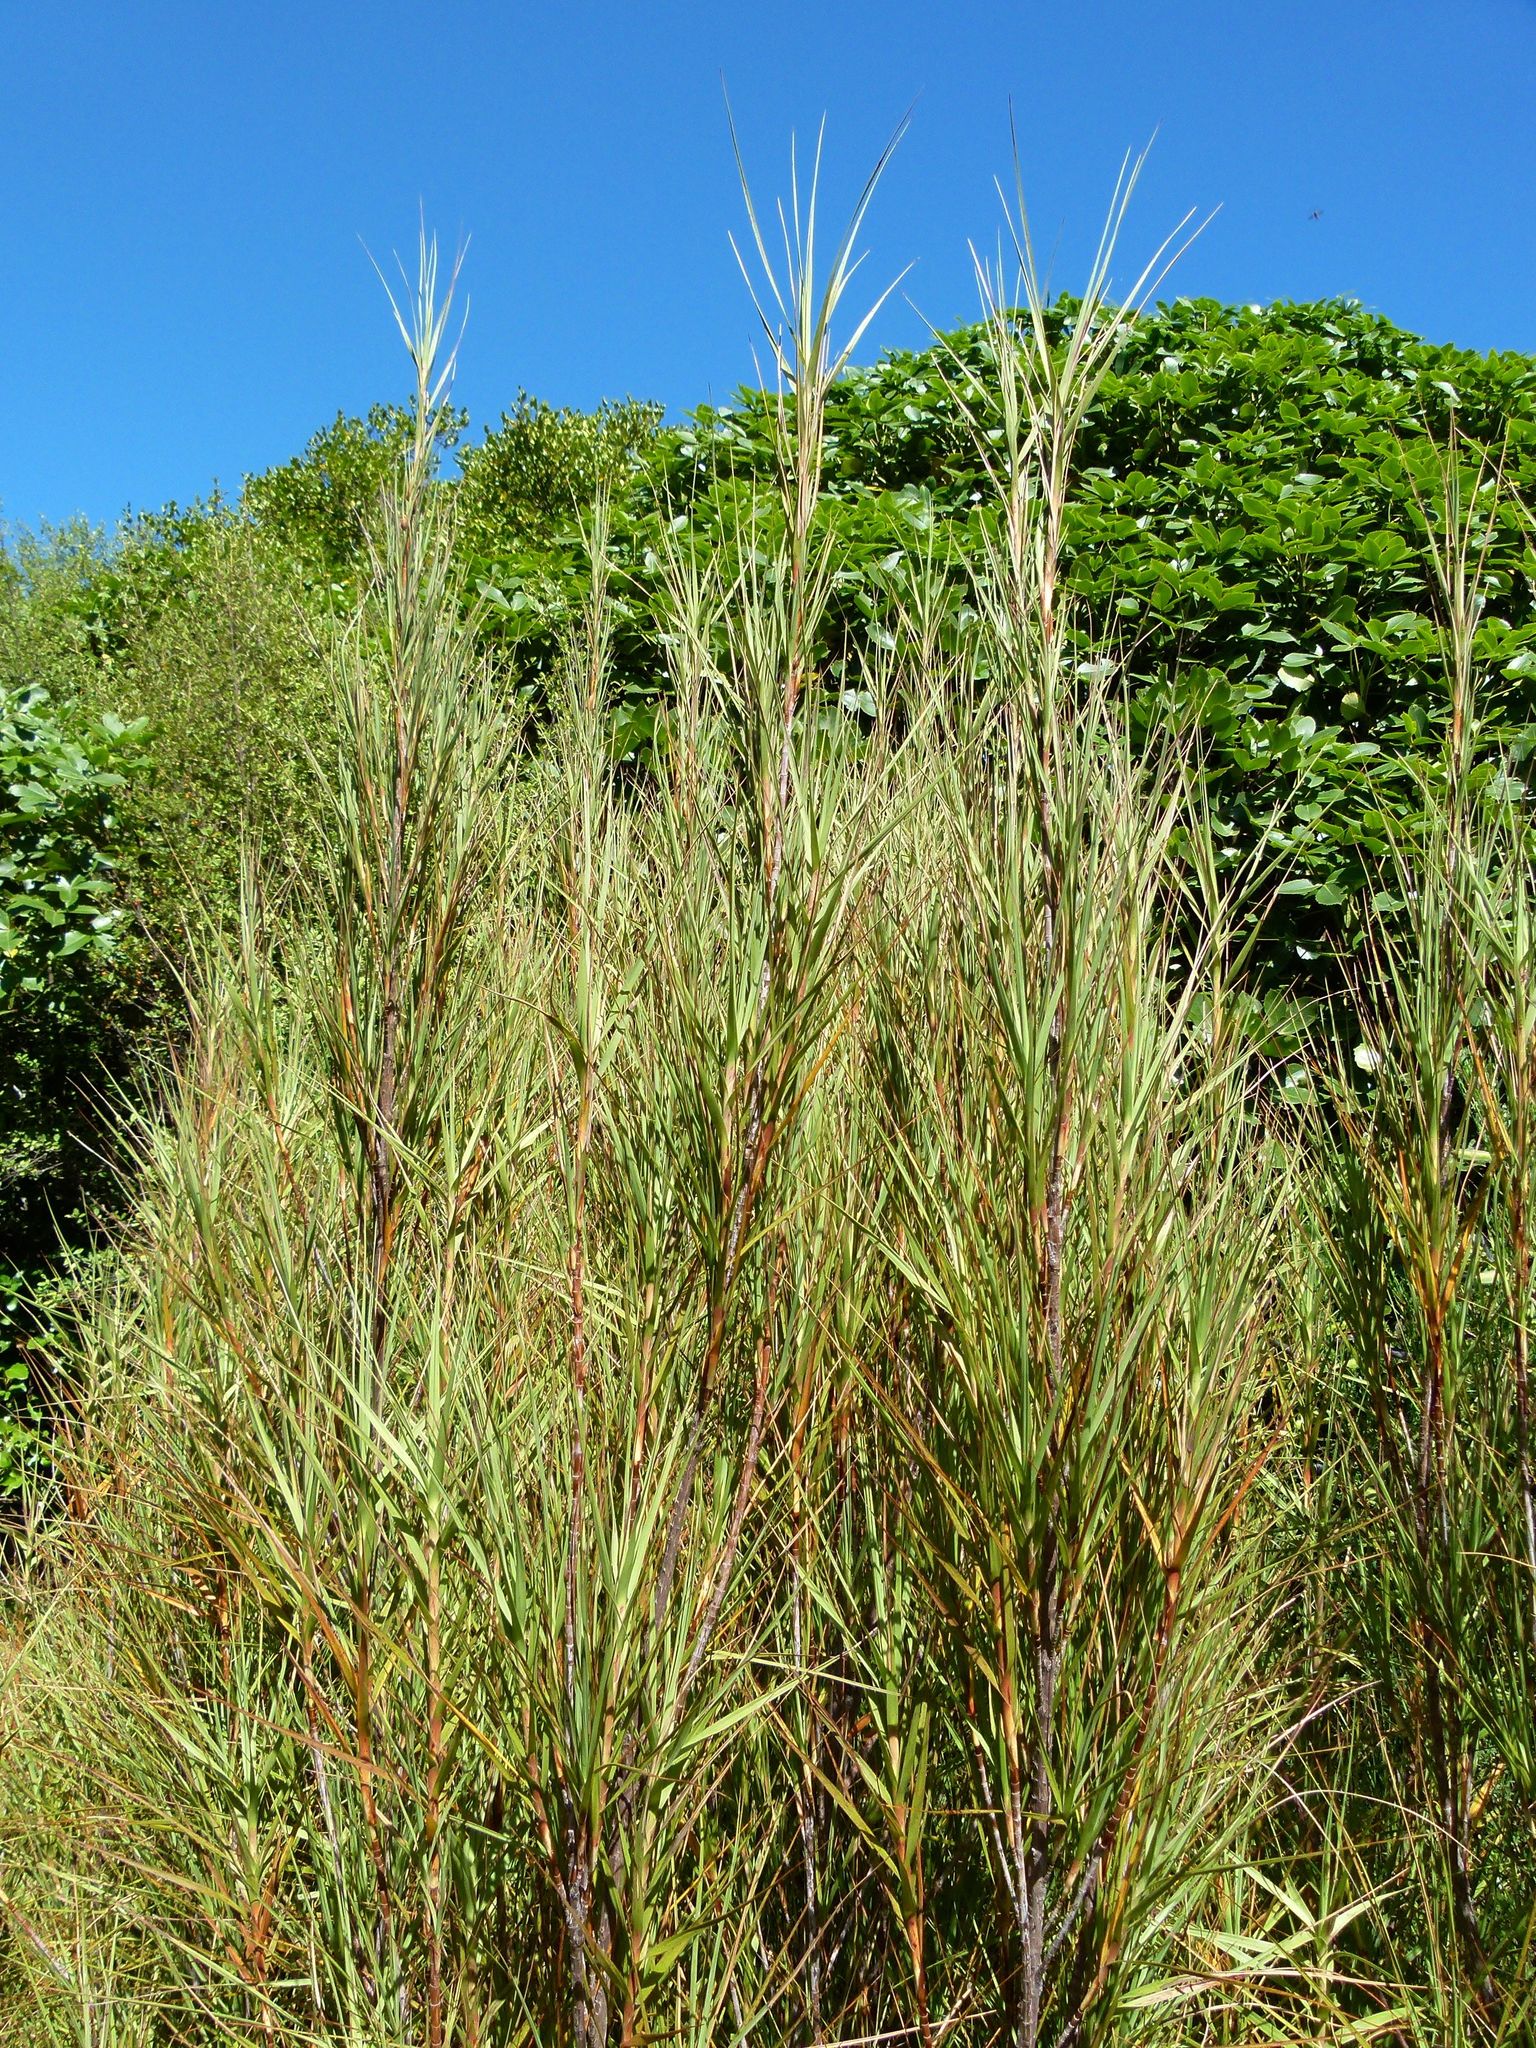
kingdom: Plantae
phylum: Tracheophyta
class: Magnoliopsida
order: Ericales
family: Ericaceae
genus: Dracophyllum
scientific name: Dracophyllum longifolium
